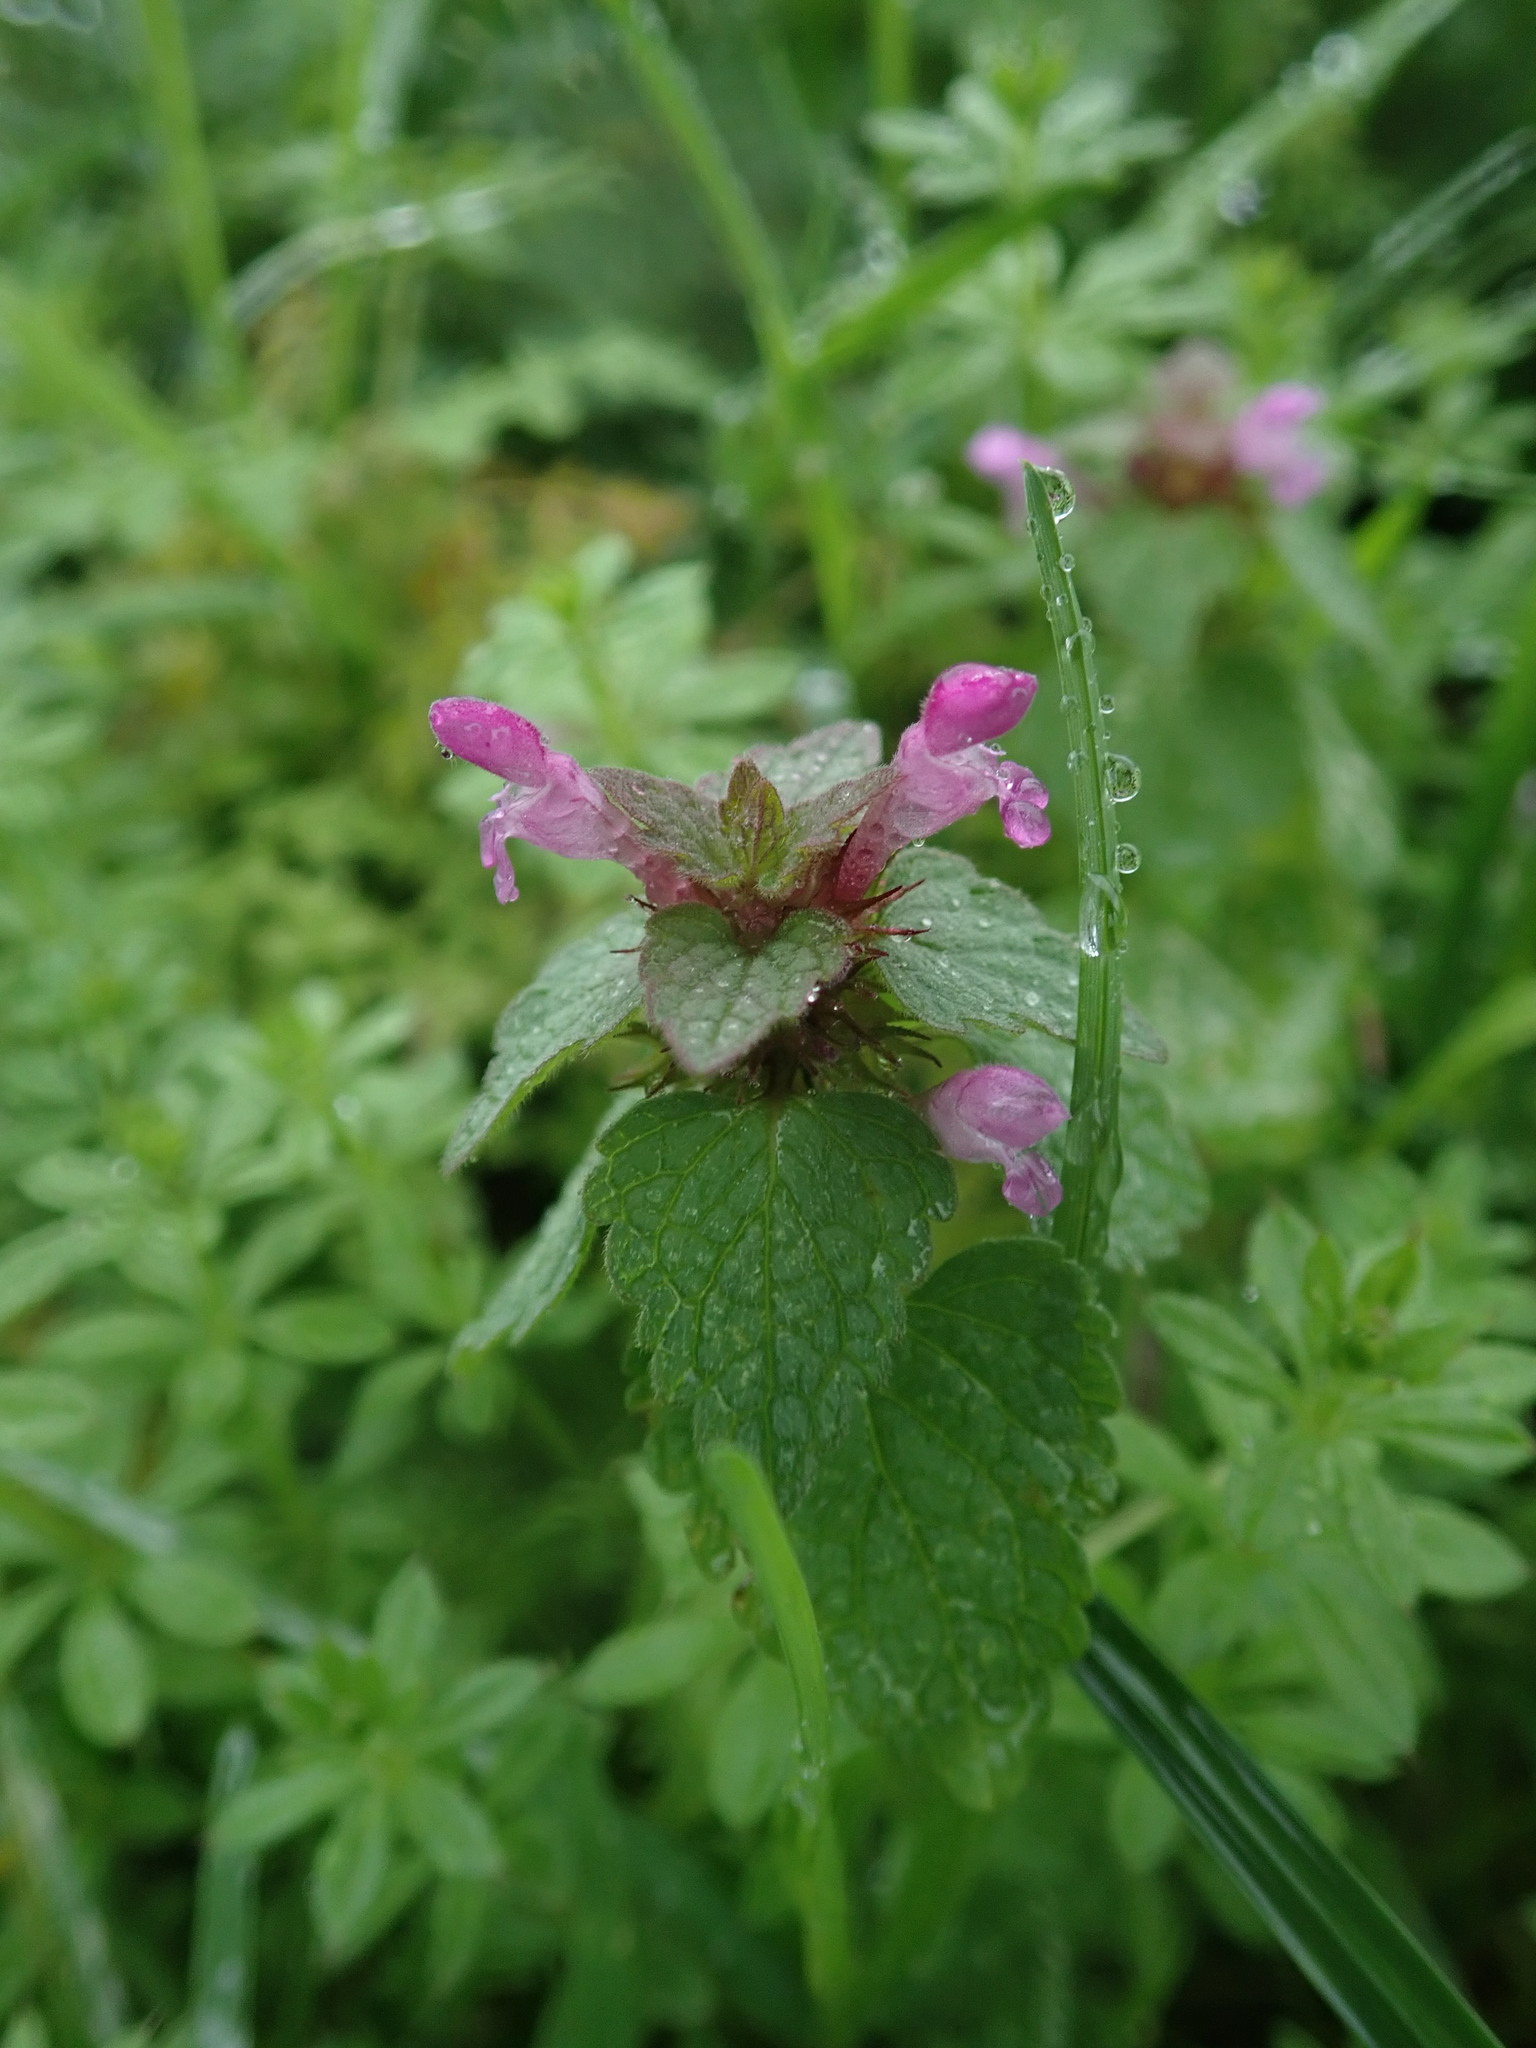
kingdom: Plantae
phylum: Tracheophyta
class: Magnoliopsida
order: Lamiales
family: Lamiaceae
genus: Lamium
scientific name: Lamium purpureum
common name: Red dead-nettle
